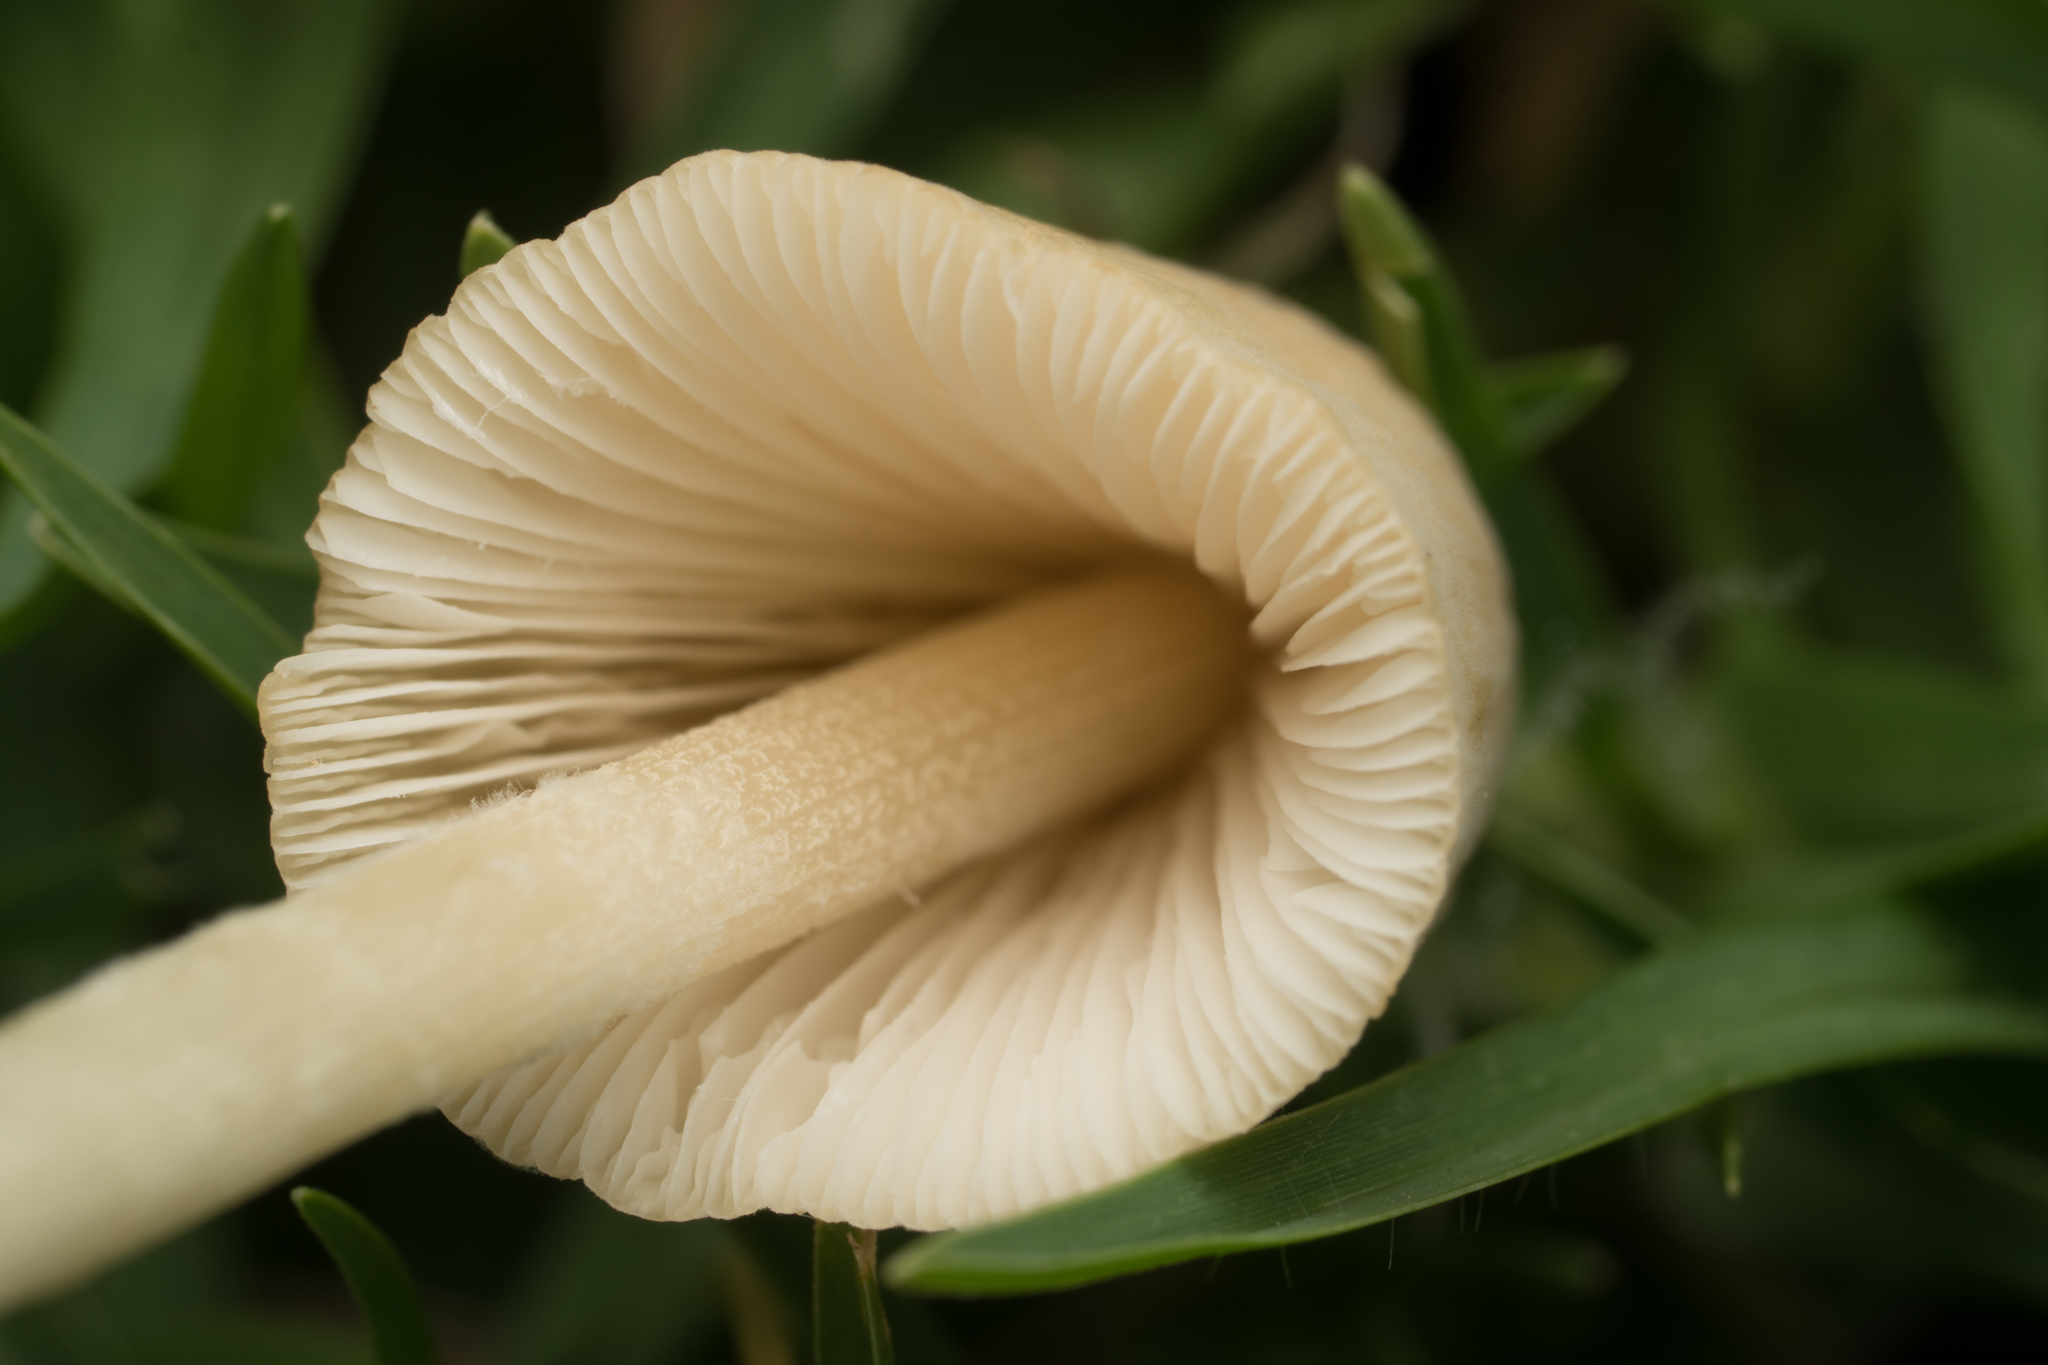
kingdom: Fungi
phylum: Basidiomycota
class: Agaricomycetes
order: Agaricales
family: Bolbitiaceae
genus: Conocybe
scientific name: Conocybe apala
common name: Milky conecap
